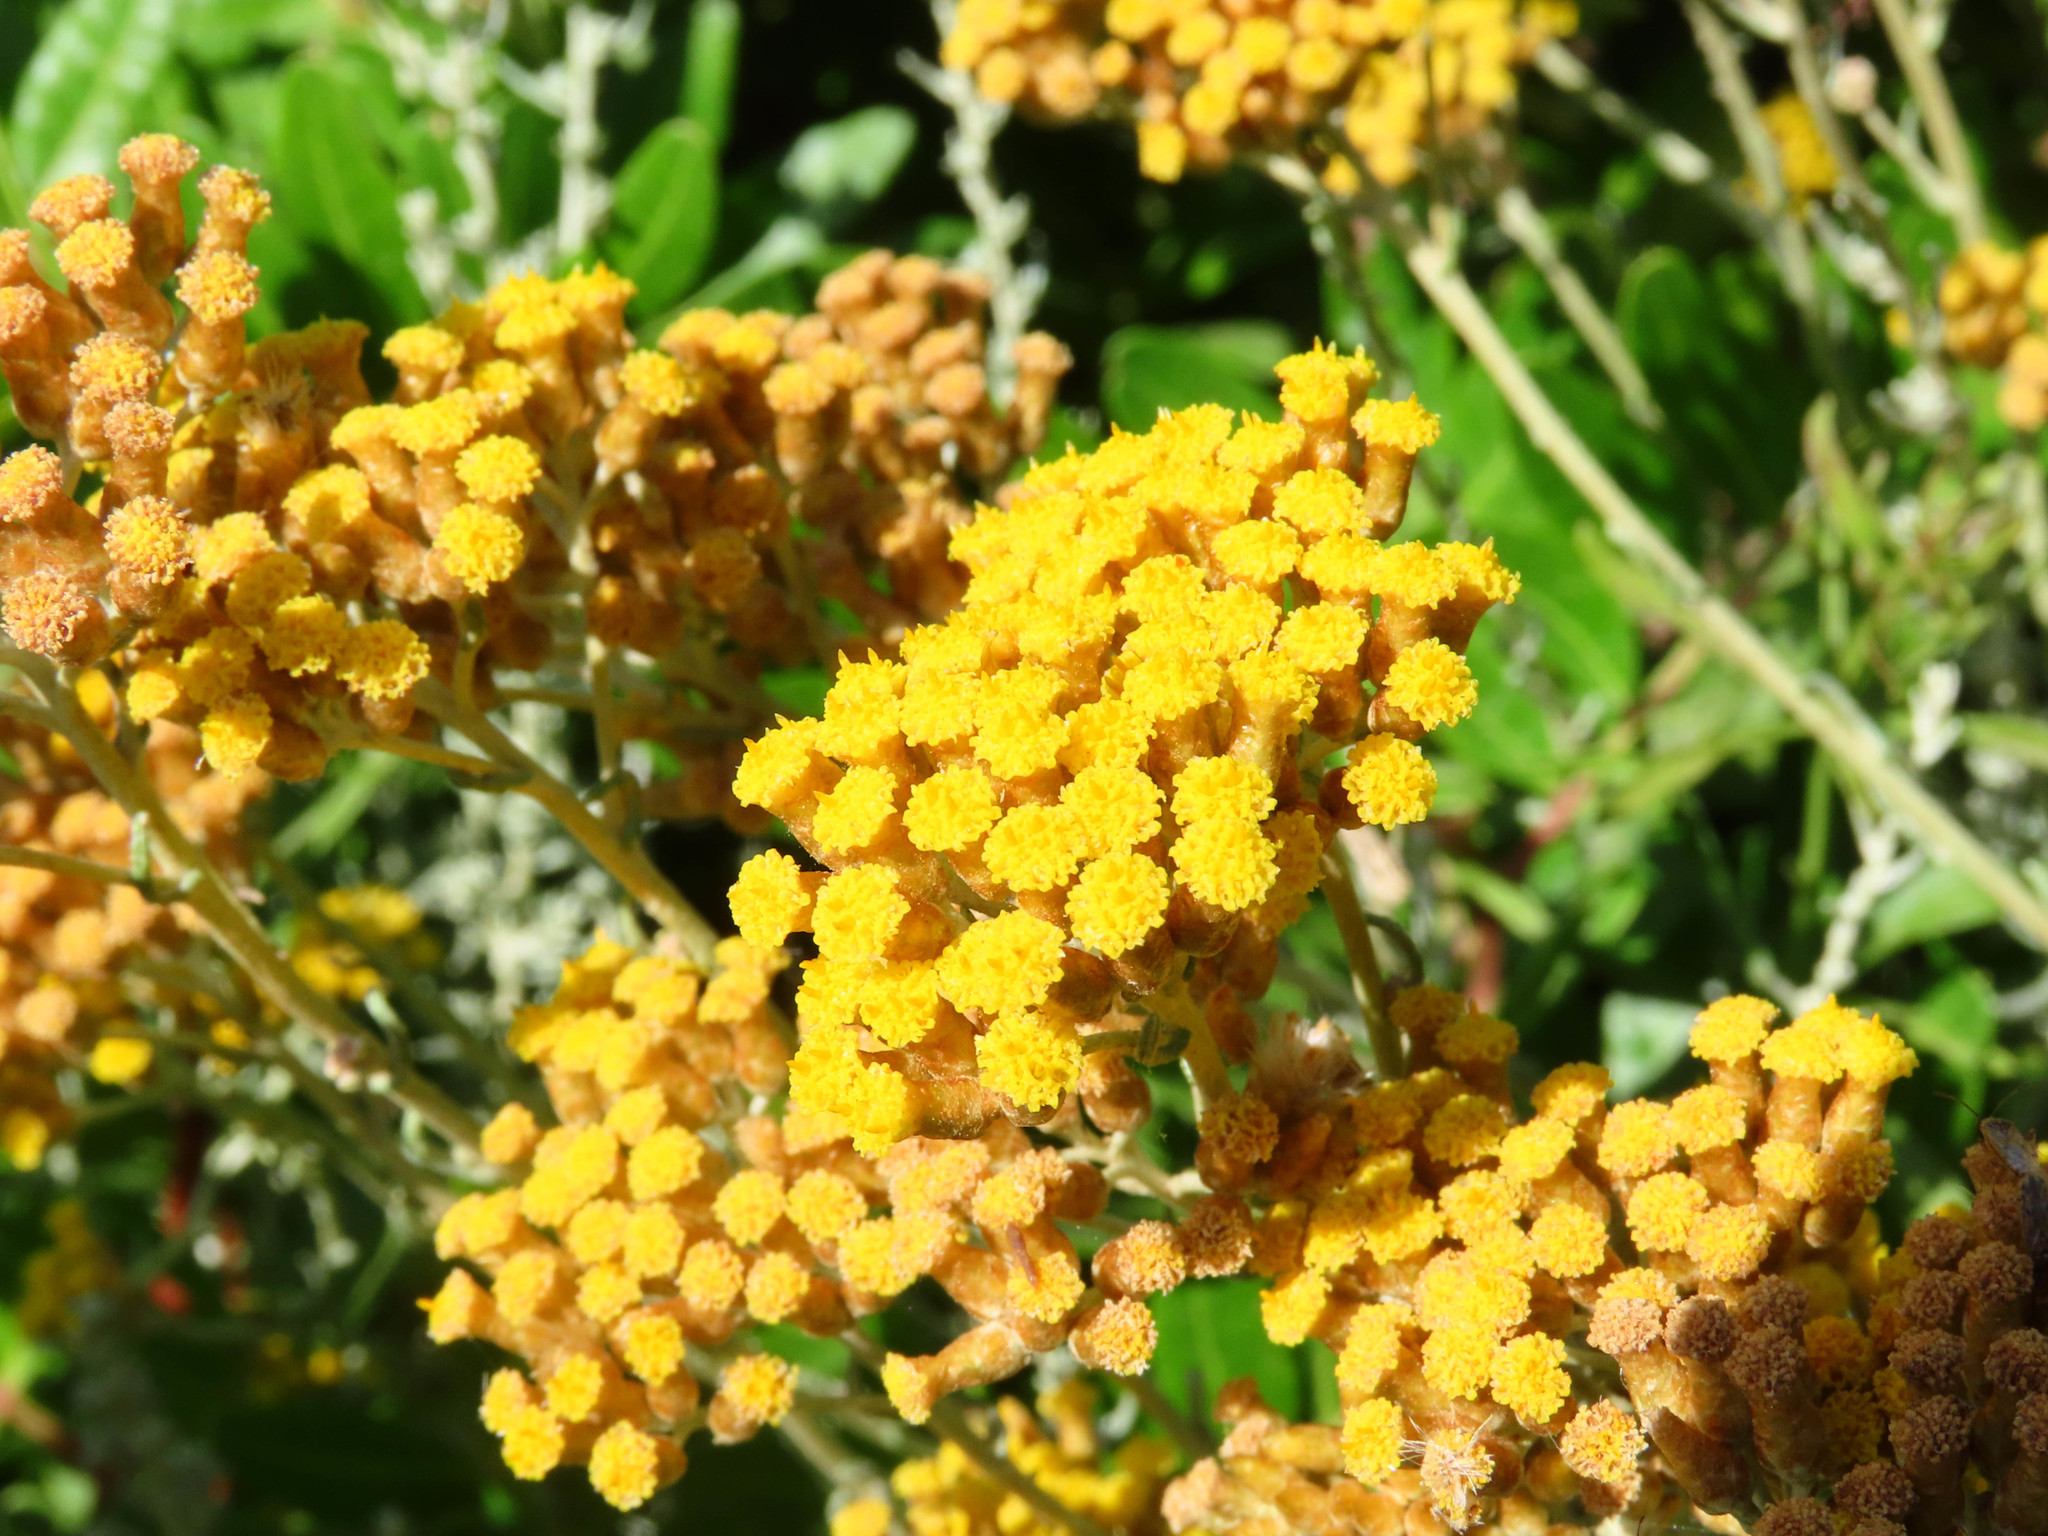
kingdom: Plantae
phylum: Tracheophyta
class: Magnoliopsida
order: Asterales
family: Asteraceae
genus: Helichrysum
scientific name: Helichrysum italicum
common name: Curryplant
